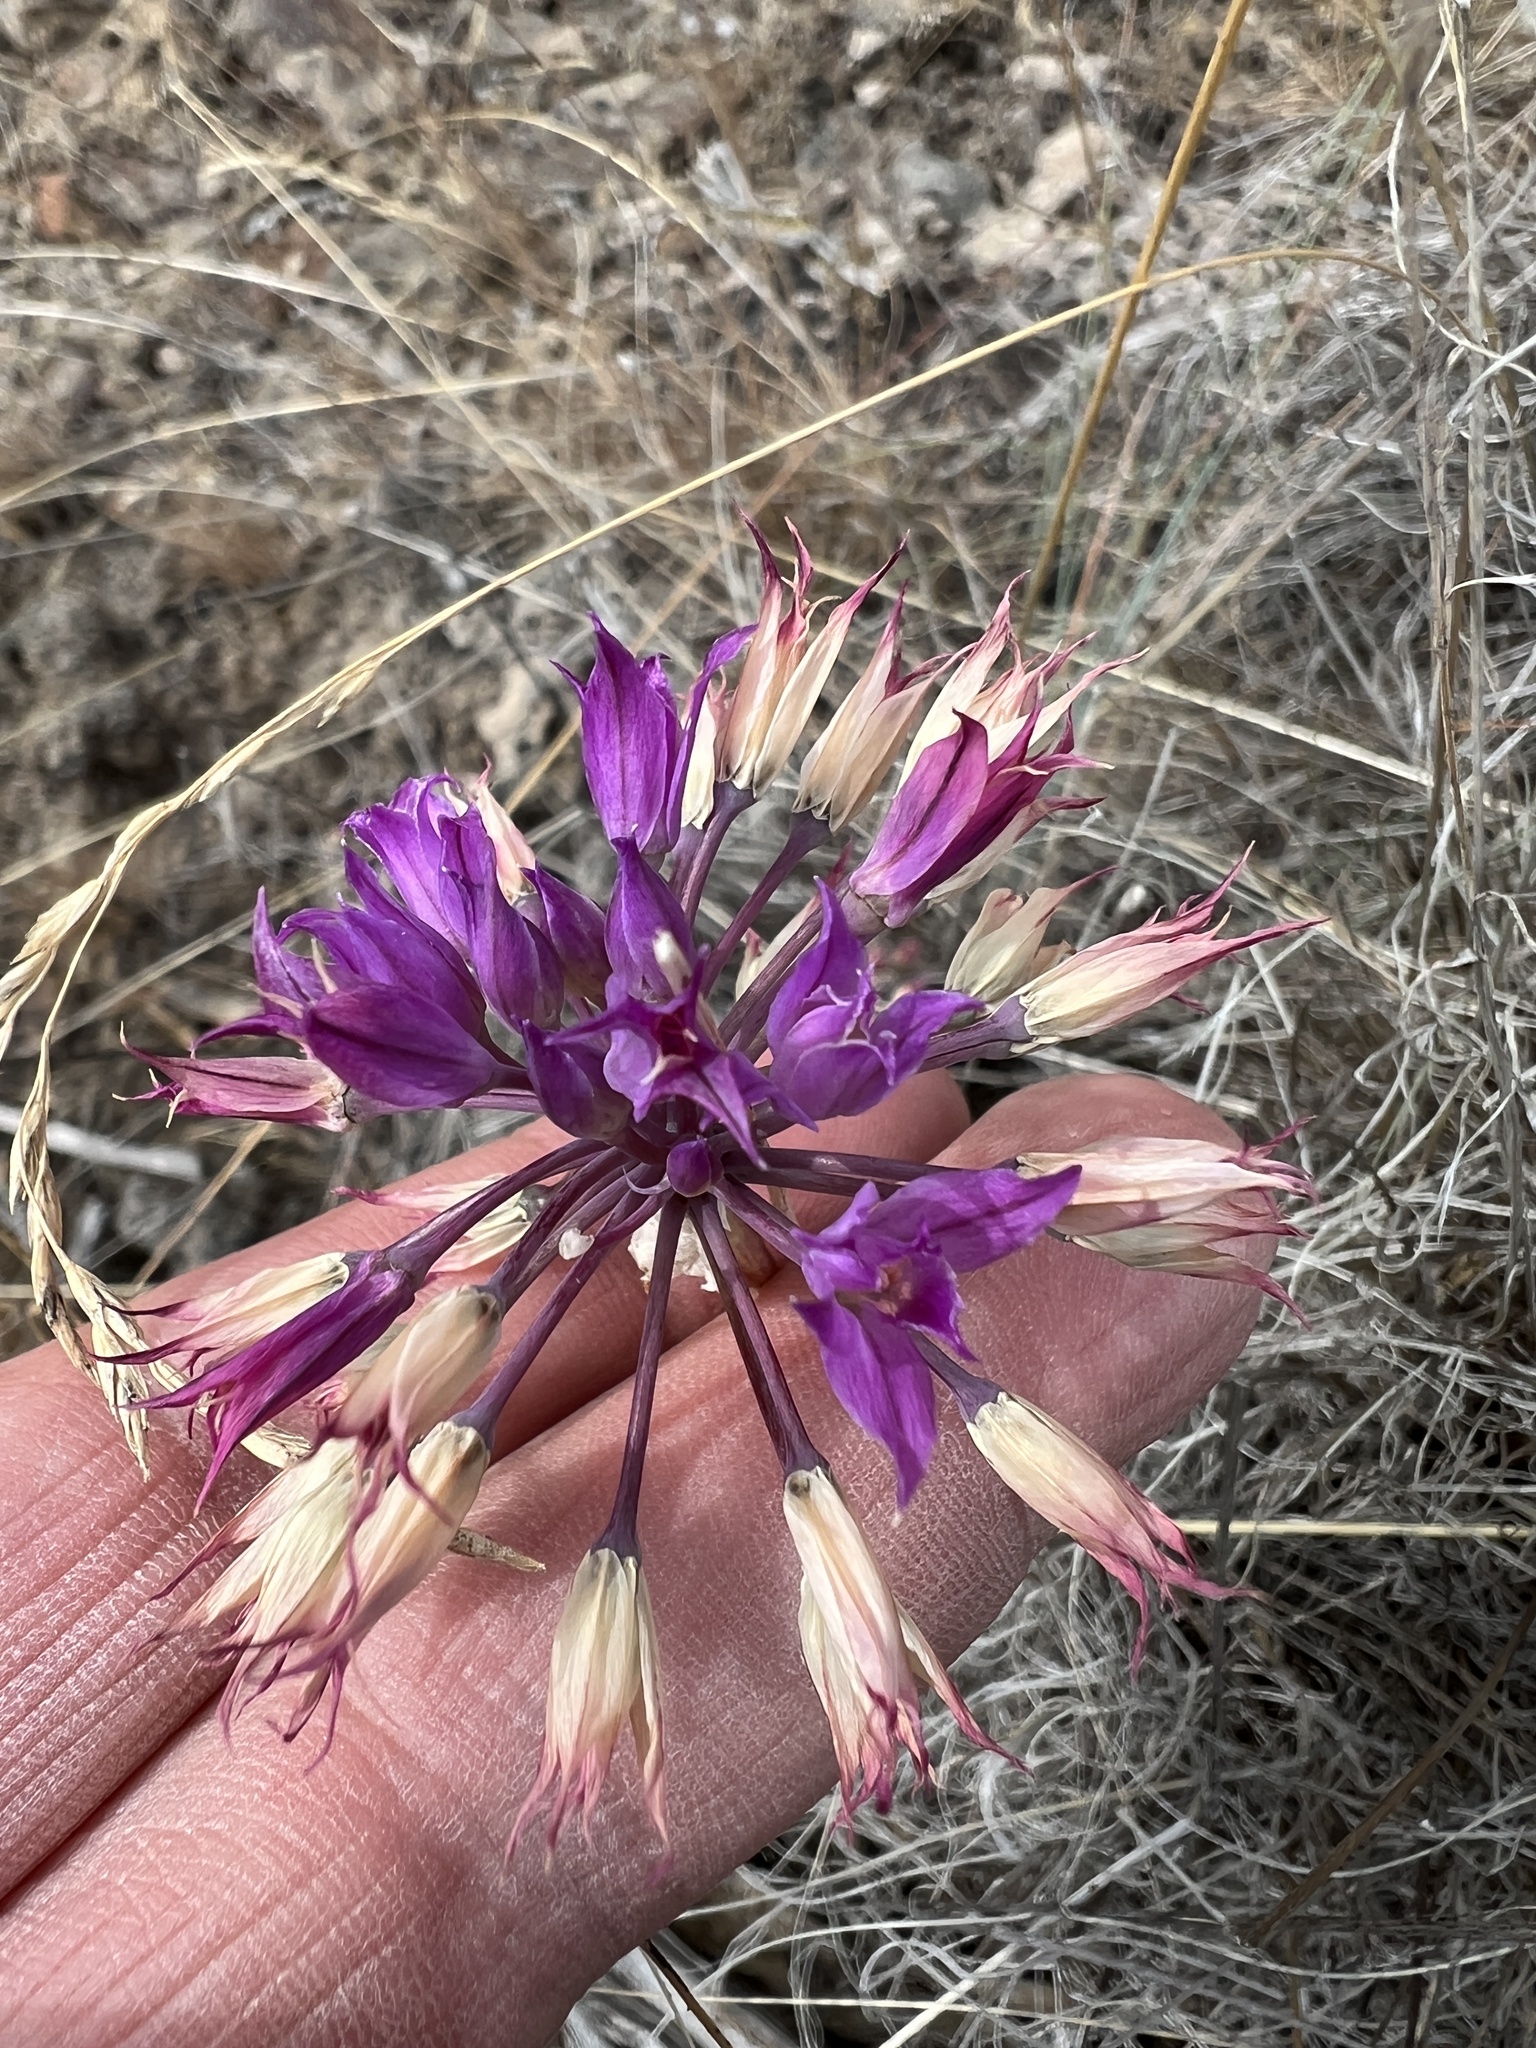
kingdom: Plantae
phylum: Tracheophyta
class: Liliopsida
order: Asparagales
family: Amaryllidaceae
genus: Allium
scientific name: Allium acuminatum
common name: Hooker's onion
